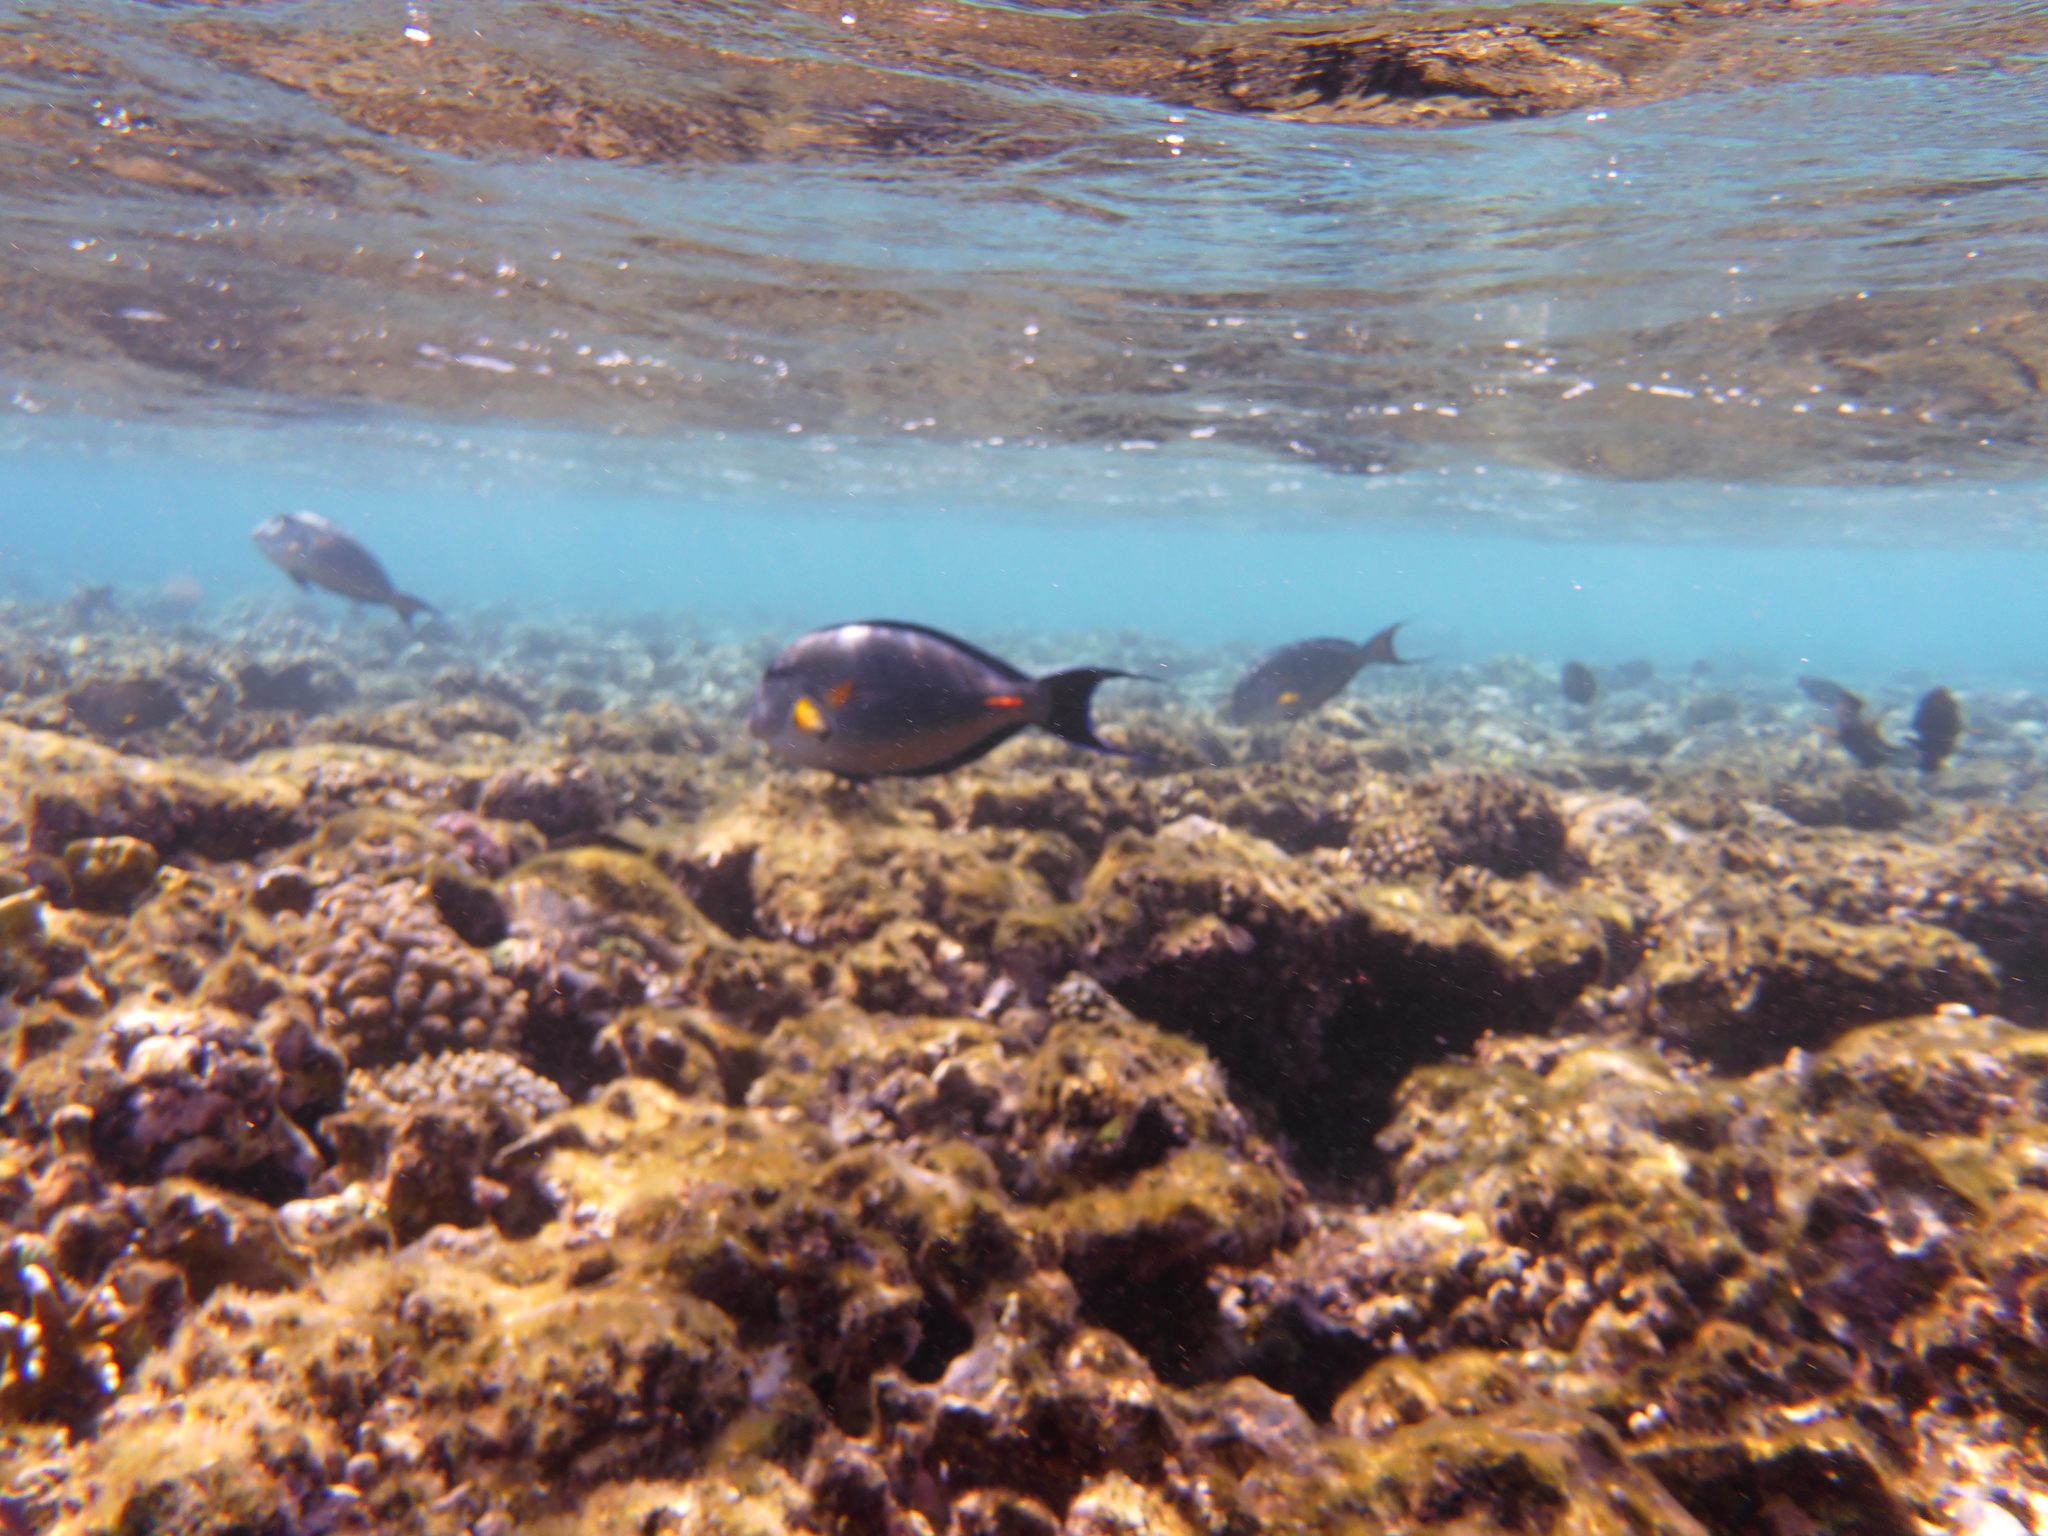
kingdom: Animalia
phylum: Chordata
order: Perciformes
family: Acanthuridae
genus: Acanthurus
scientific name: Acanthurus sohal
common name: Red sea surgeonfish
